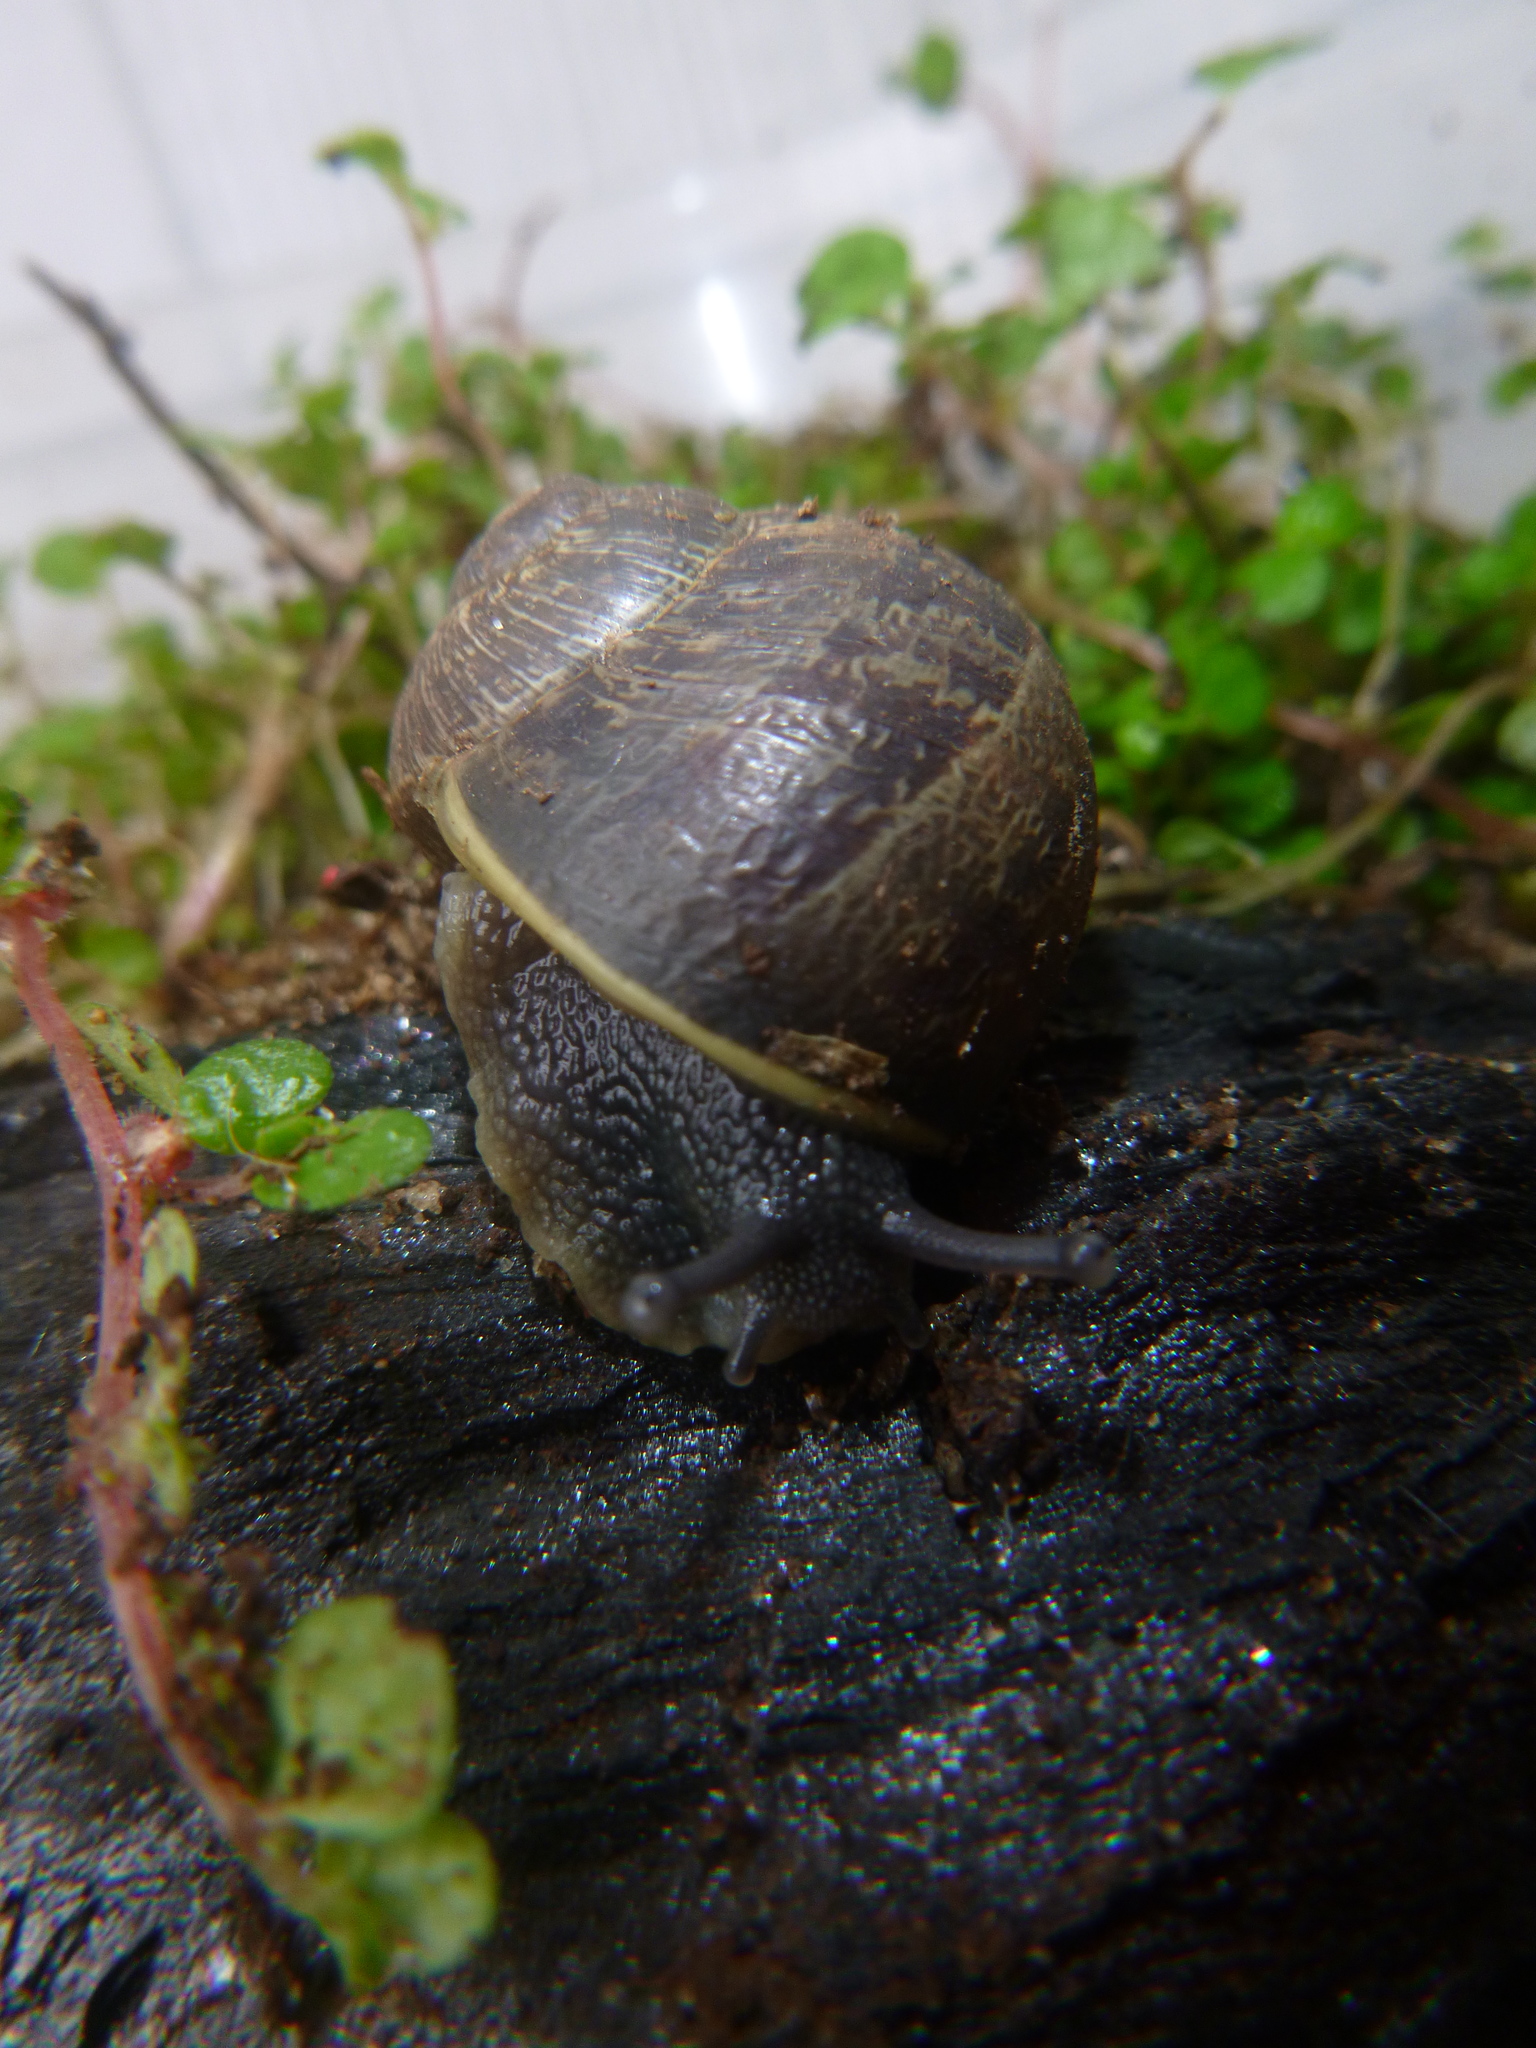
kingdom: Animalia
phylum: Mollusca
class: Gastropoda
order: Stylommatophora
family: Helicidae
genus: Cornu
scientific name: Cornu aspersum
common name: Brown garden snail
